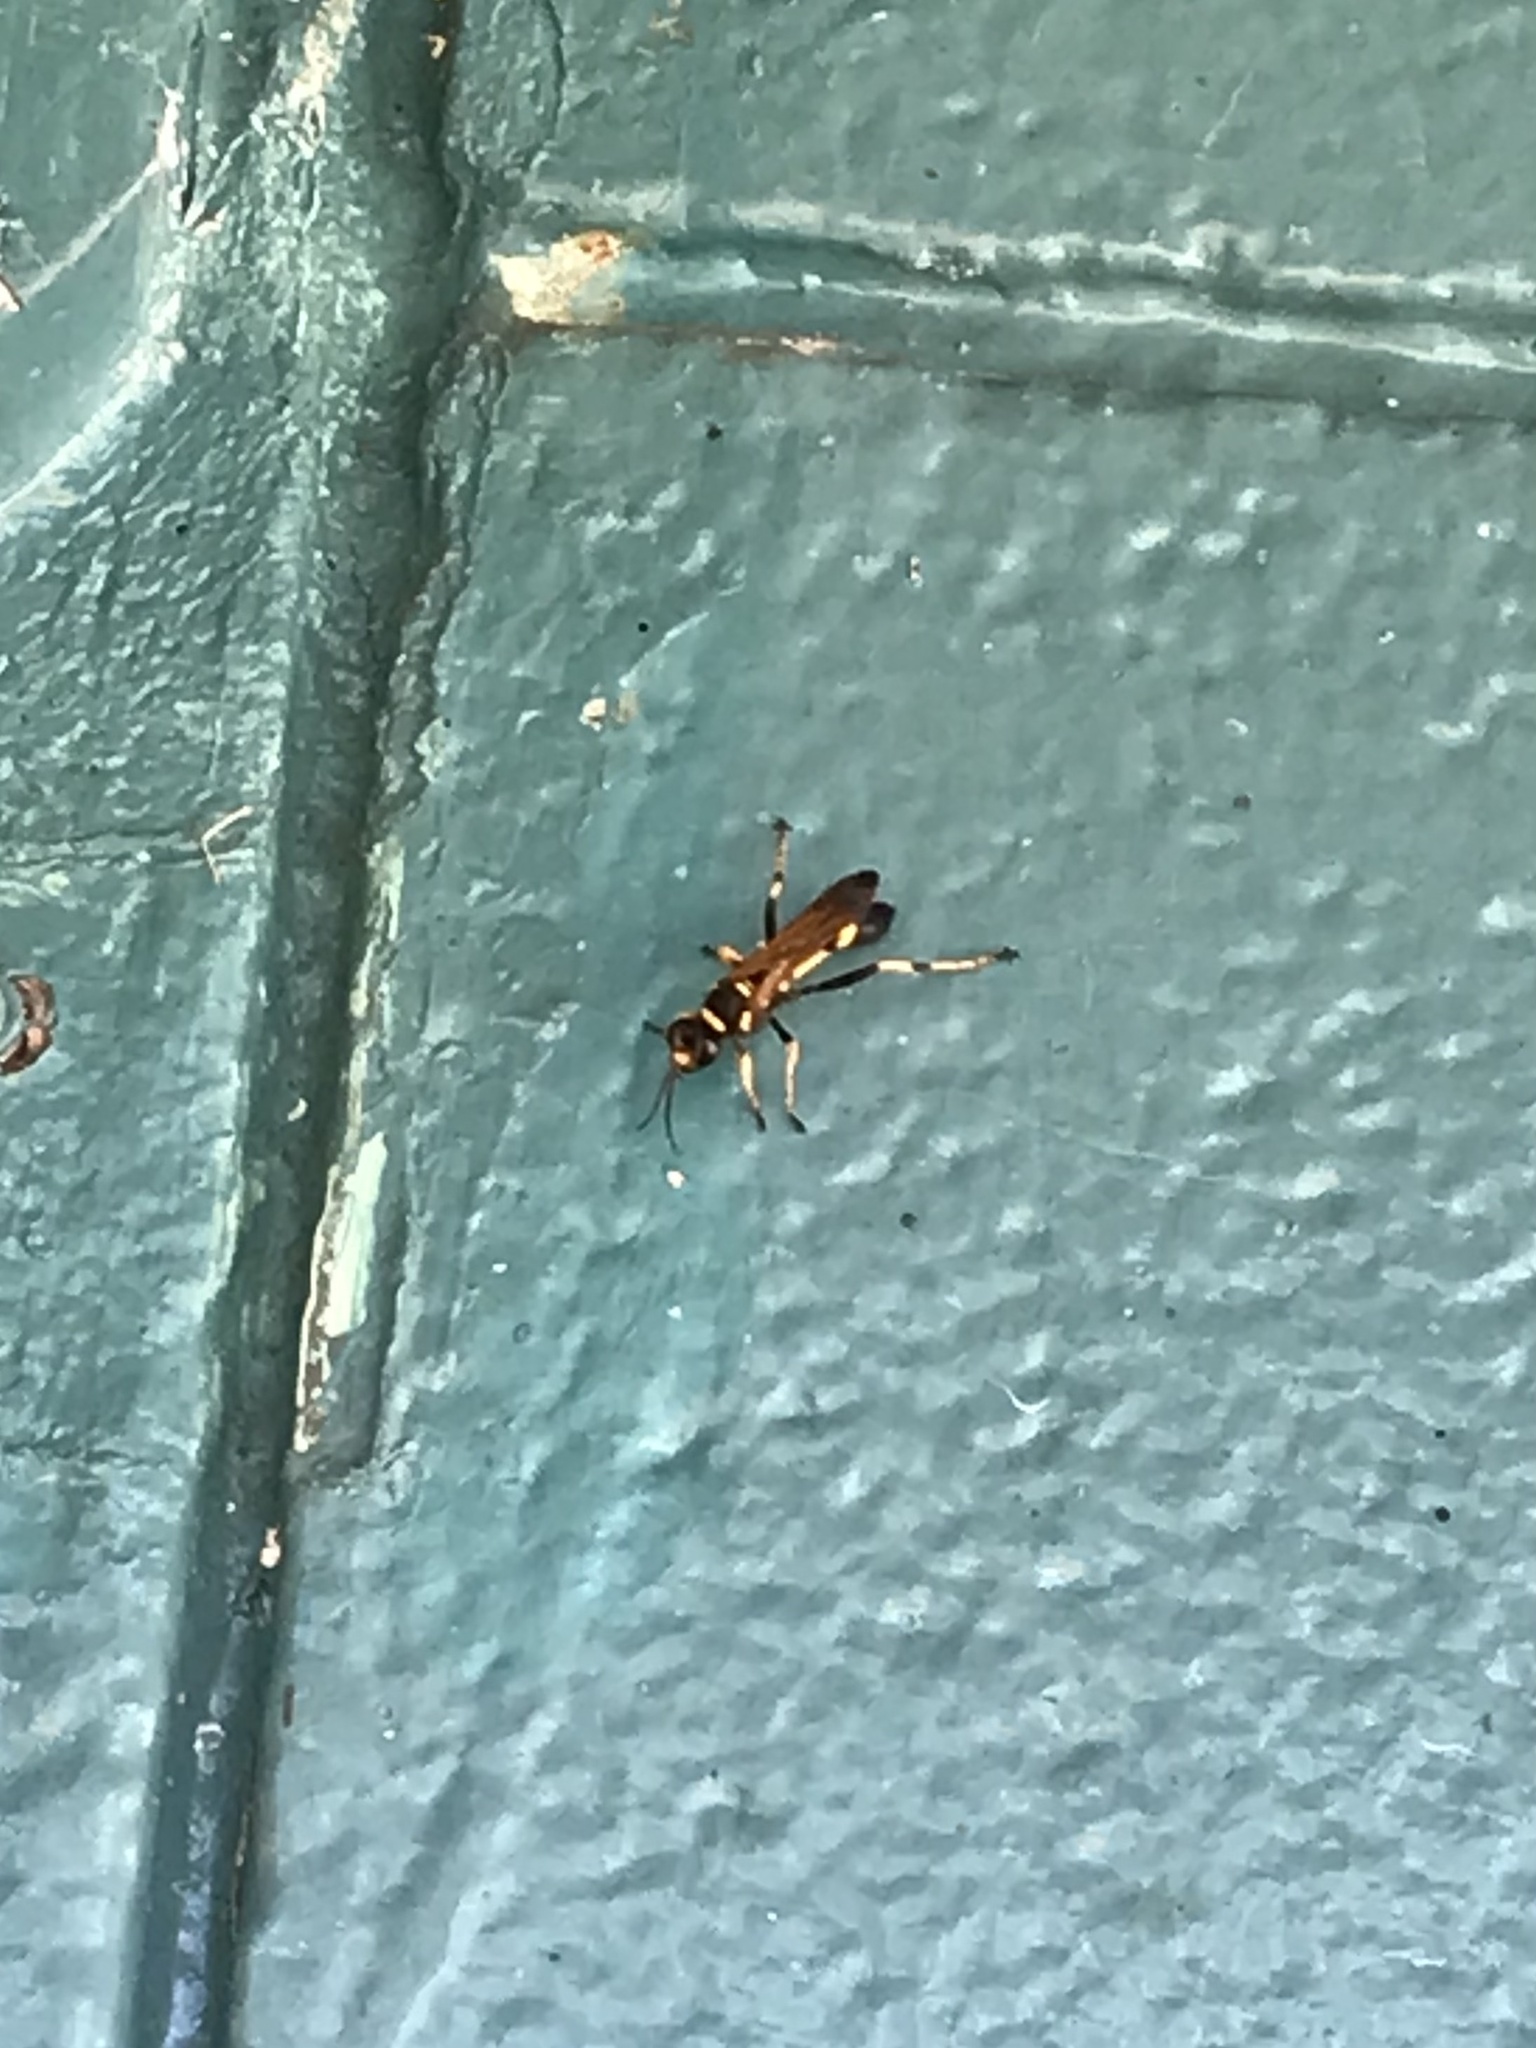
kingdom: Animalia
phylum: Arthropoda
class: Insecta
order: Hymenoptera
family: Sphecidae
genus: Sceliphron
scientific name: Sceliphron caementarium
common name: Mud dauber
